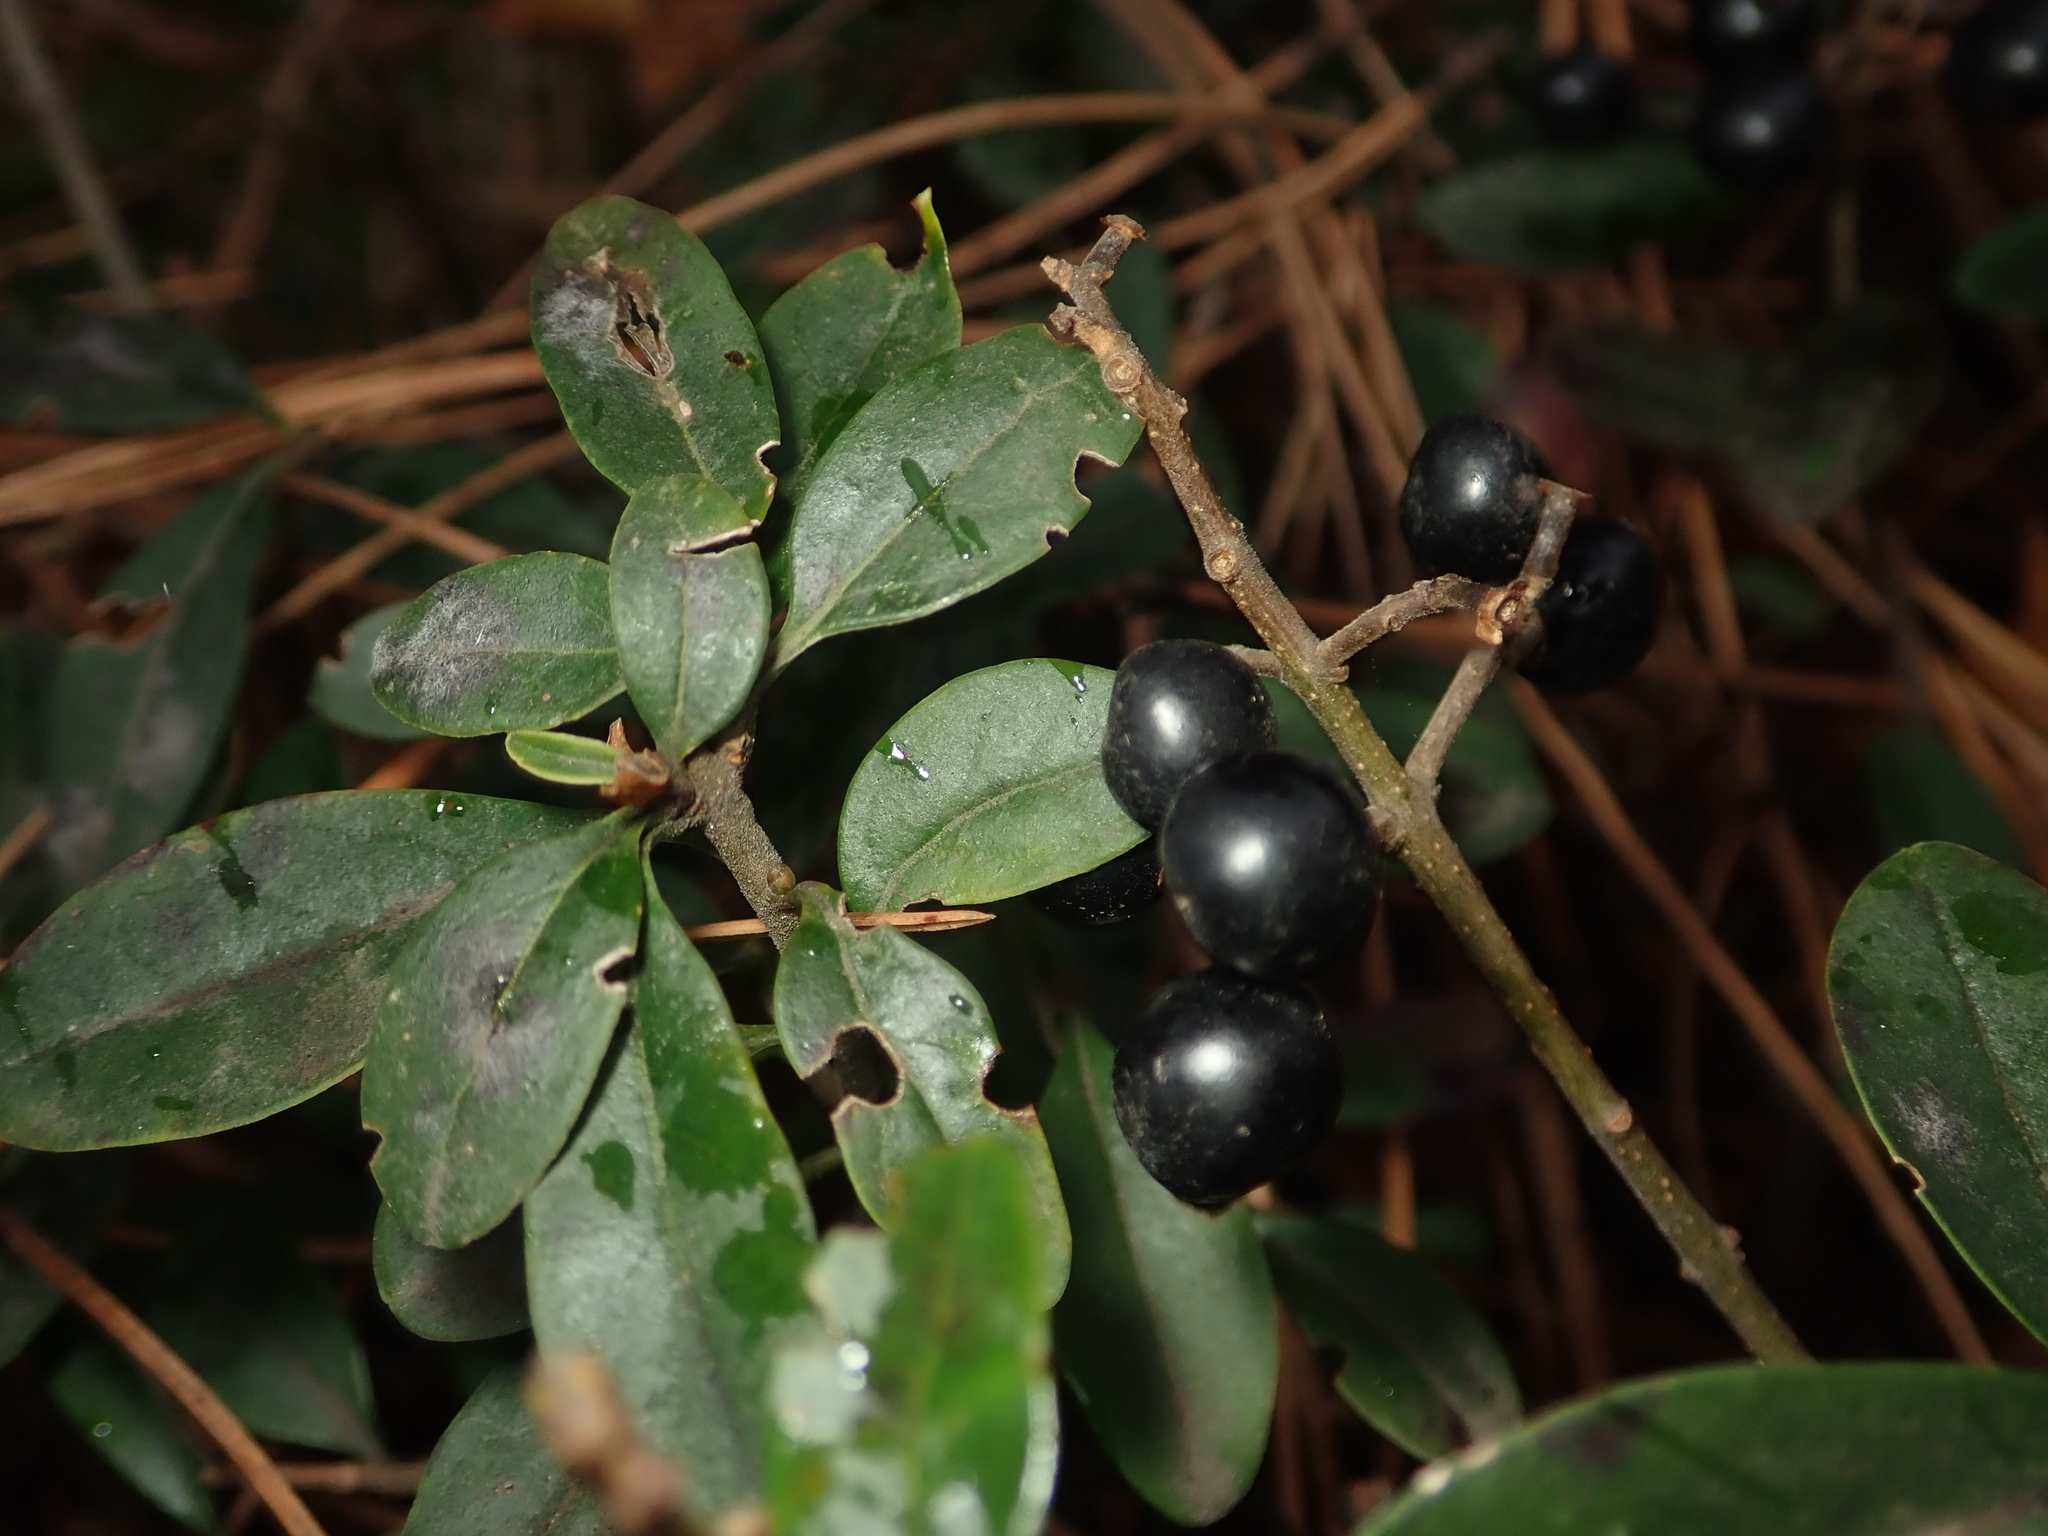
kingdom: Plantae
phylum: Tracheophyta
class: Magnoliopsida
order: Lamiales
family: Oleaceae
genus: Ligustrum
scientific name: Ligustrum vulgare
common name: Wild privet
